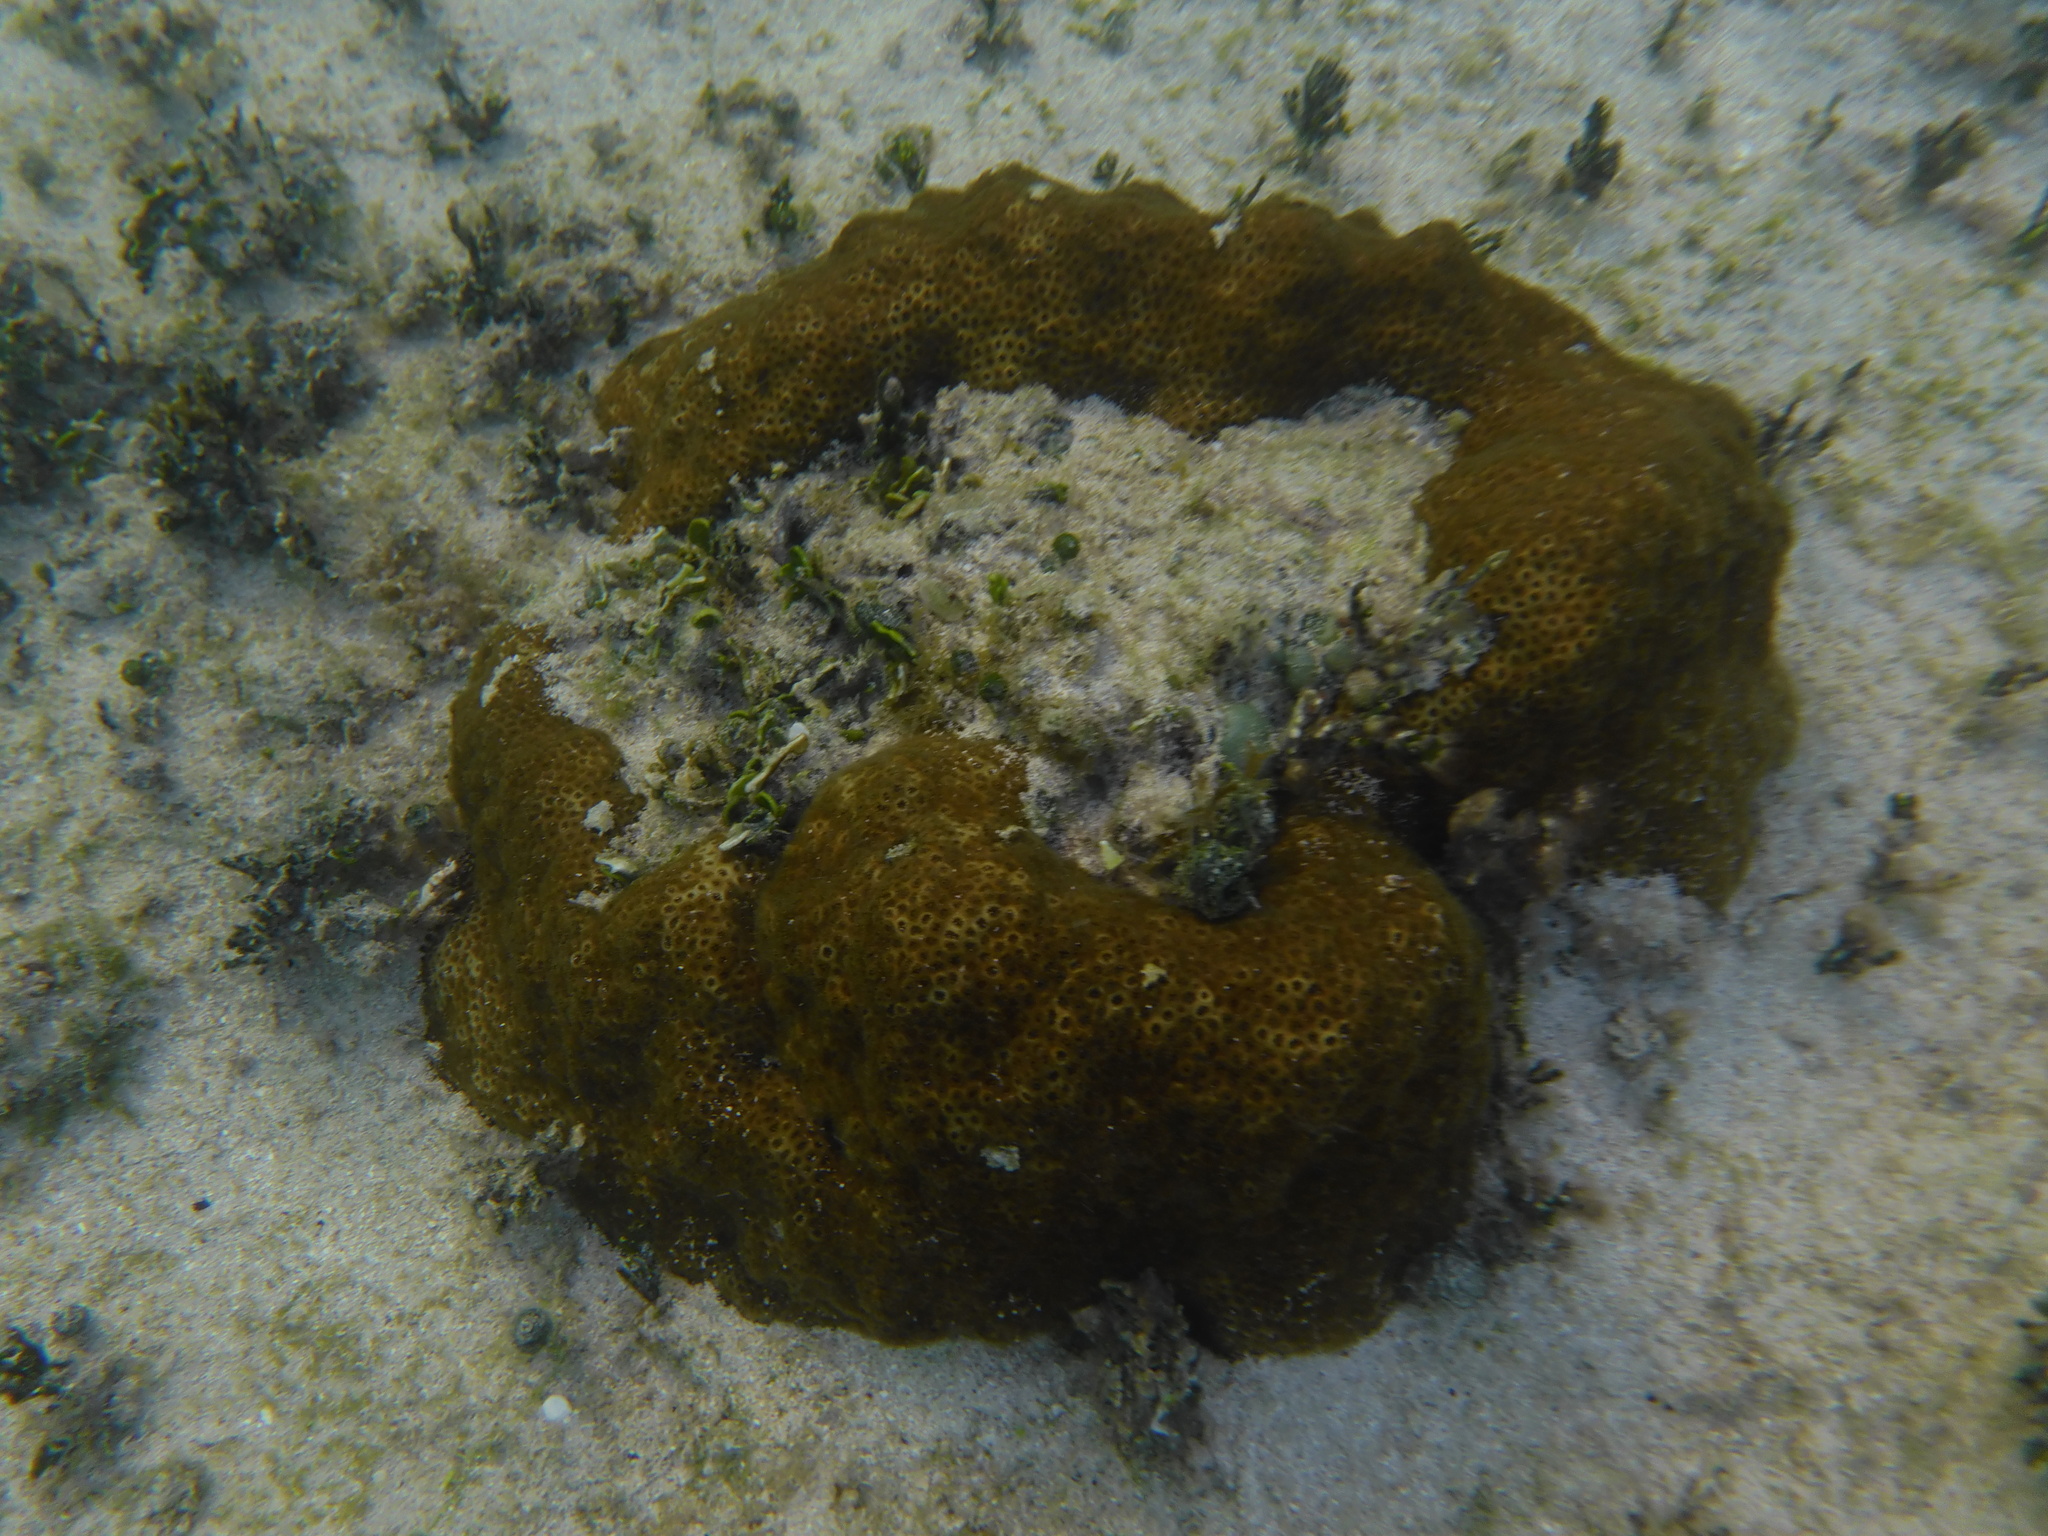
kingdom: Animalia
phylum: Cnidaria
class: Anthozoa
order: Scleractinia
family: Faviidae
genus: Solenastrea
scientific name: Solenastrea bournoni
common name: Smooth star coral
